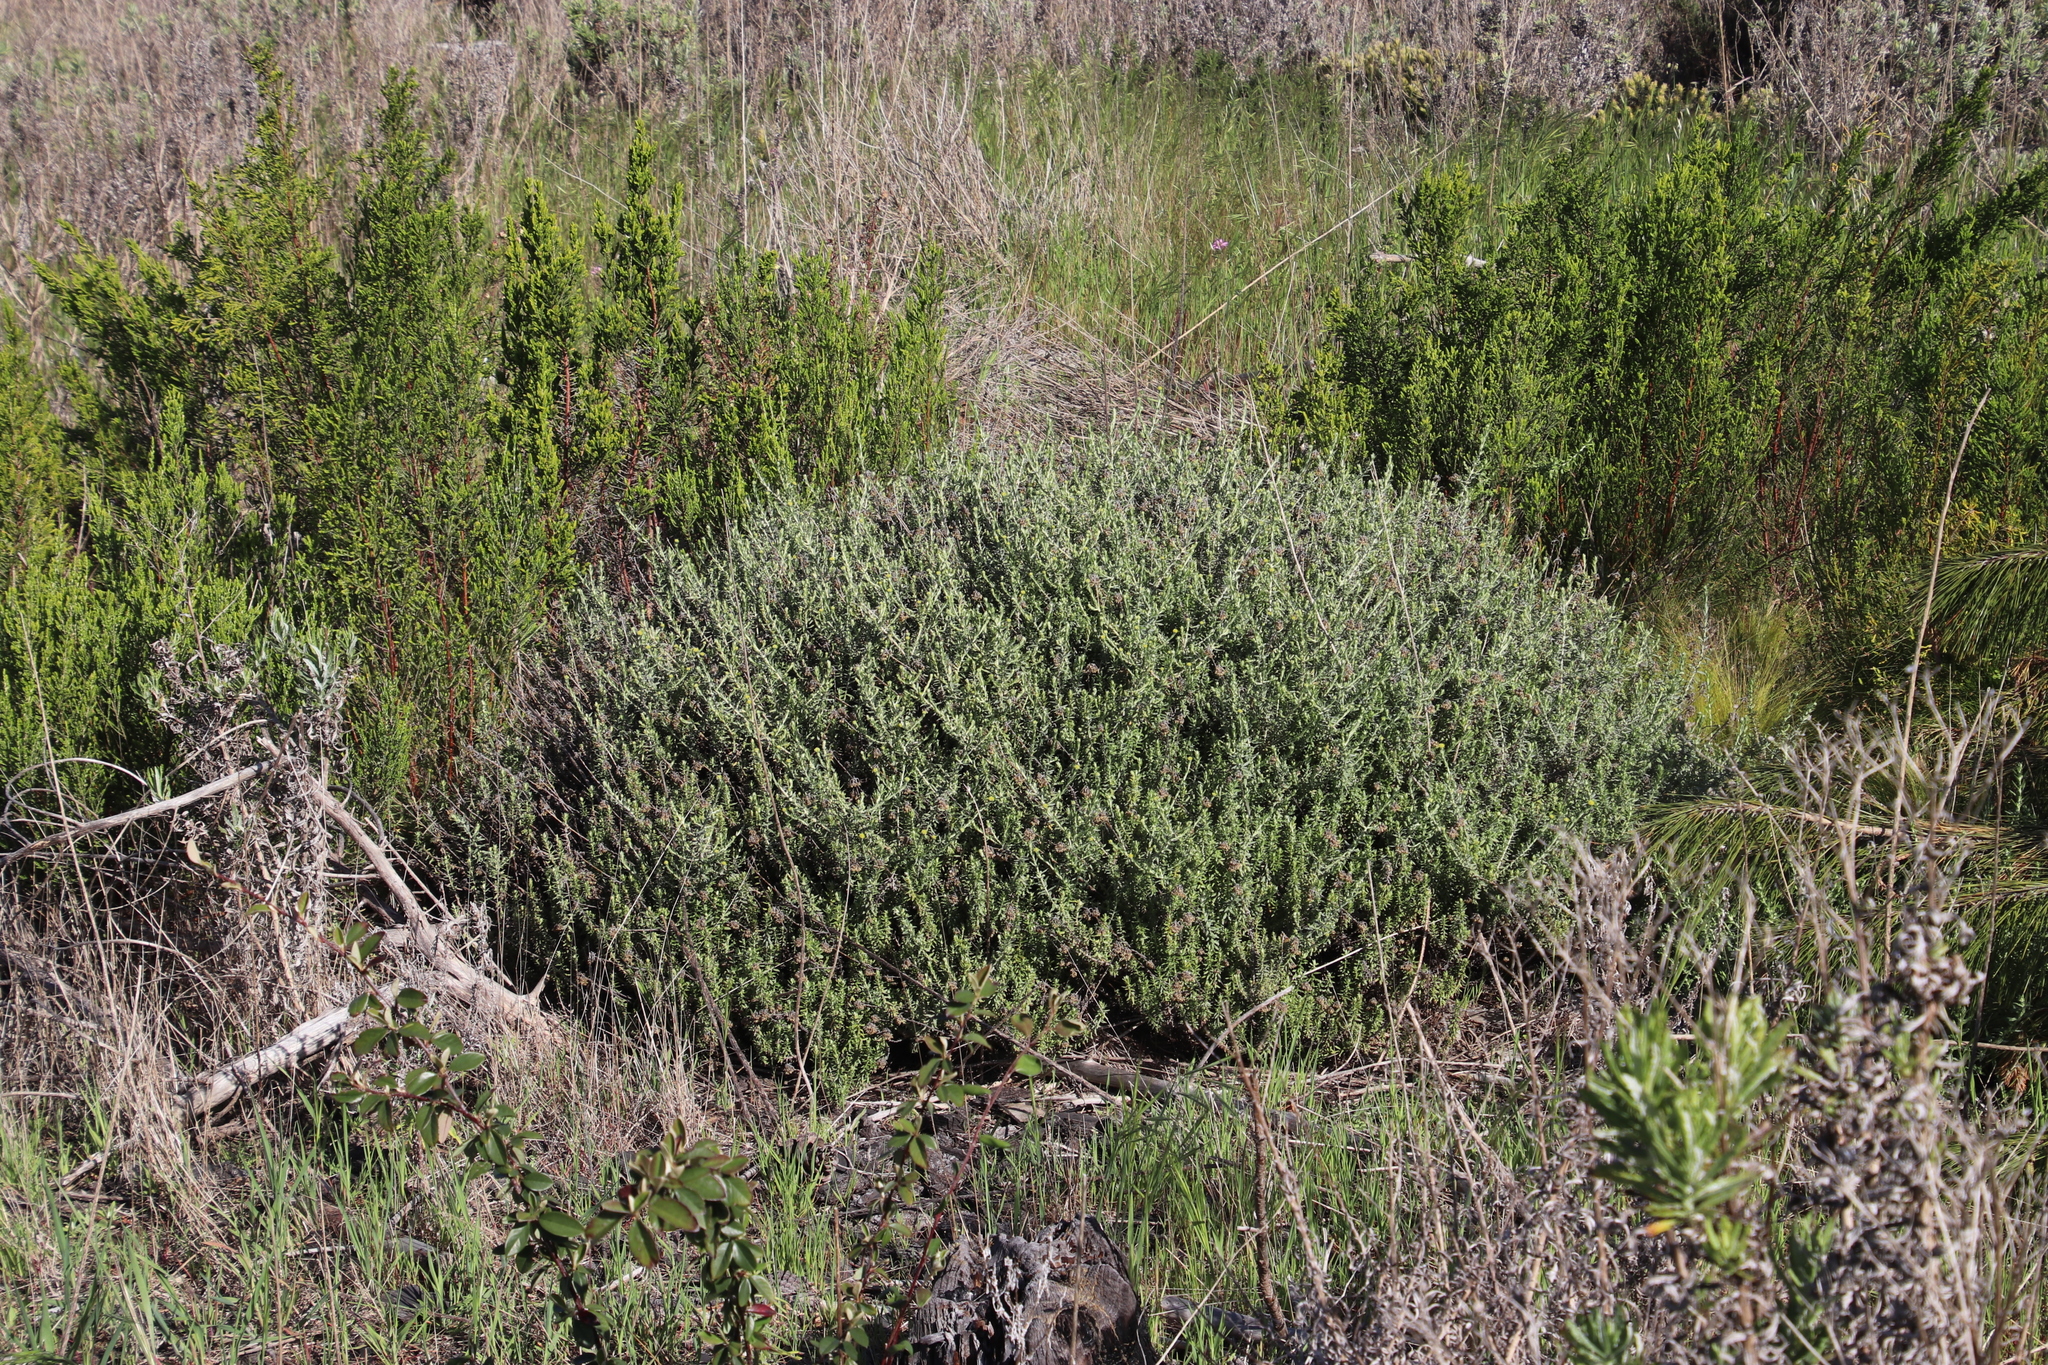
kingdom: Plantae
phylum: Tracheophyta
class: Magnoliopsida
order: Asterales
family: Asteraceae
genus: Helichrysum
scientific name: Helichrysum cymosum
